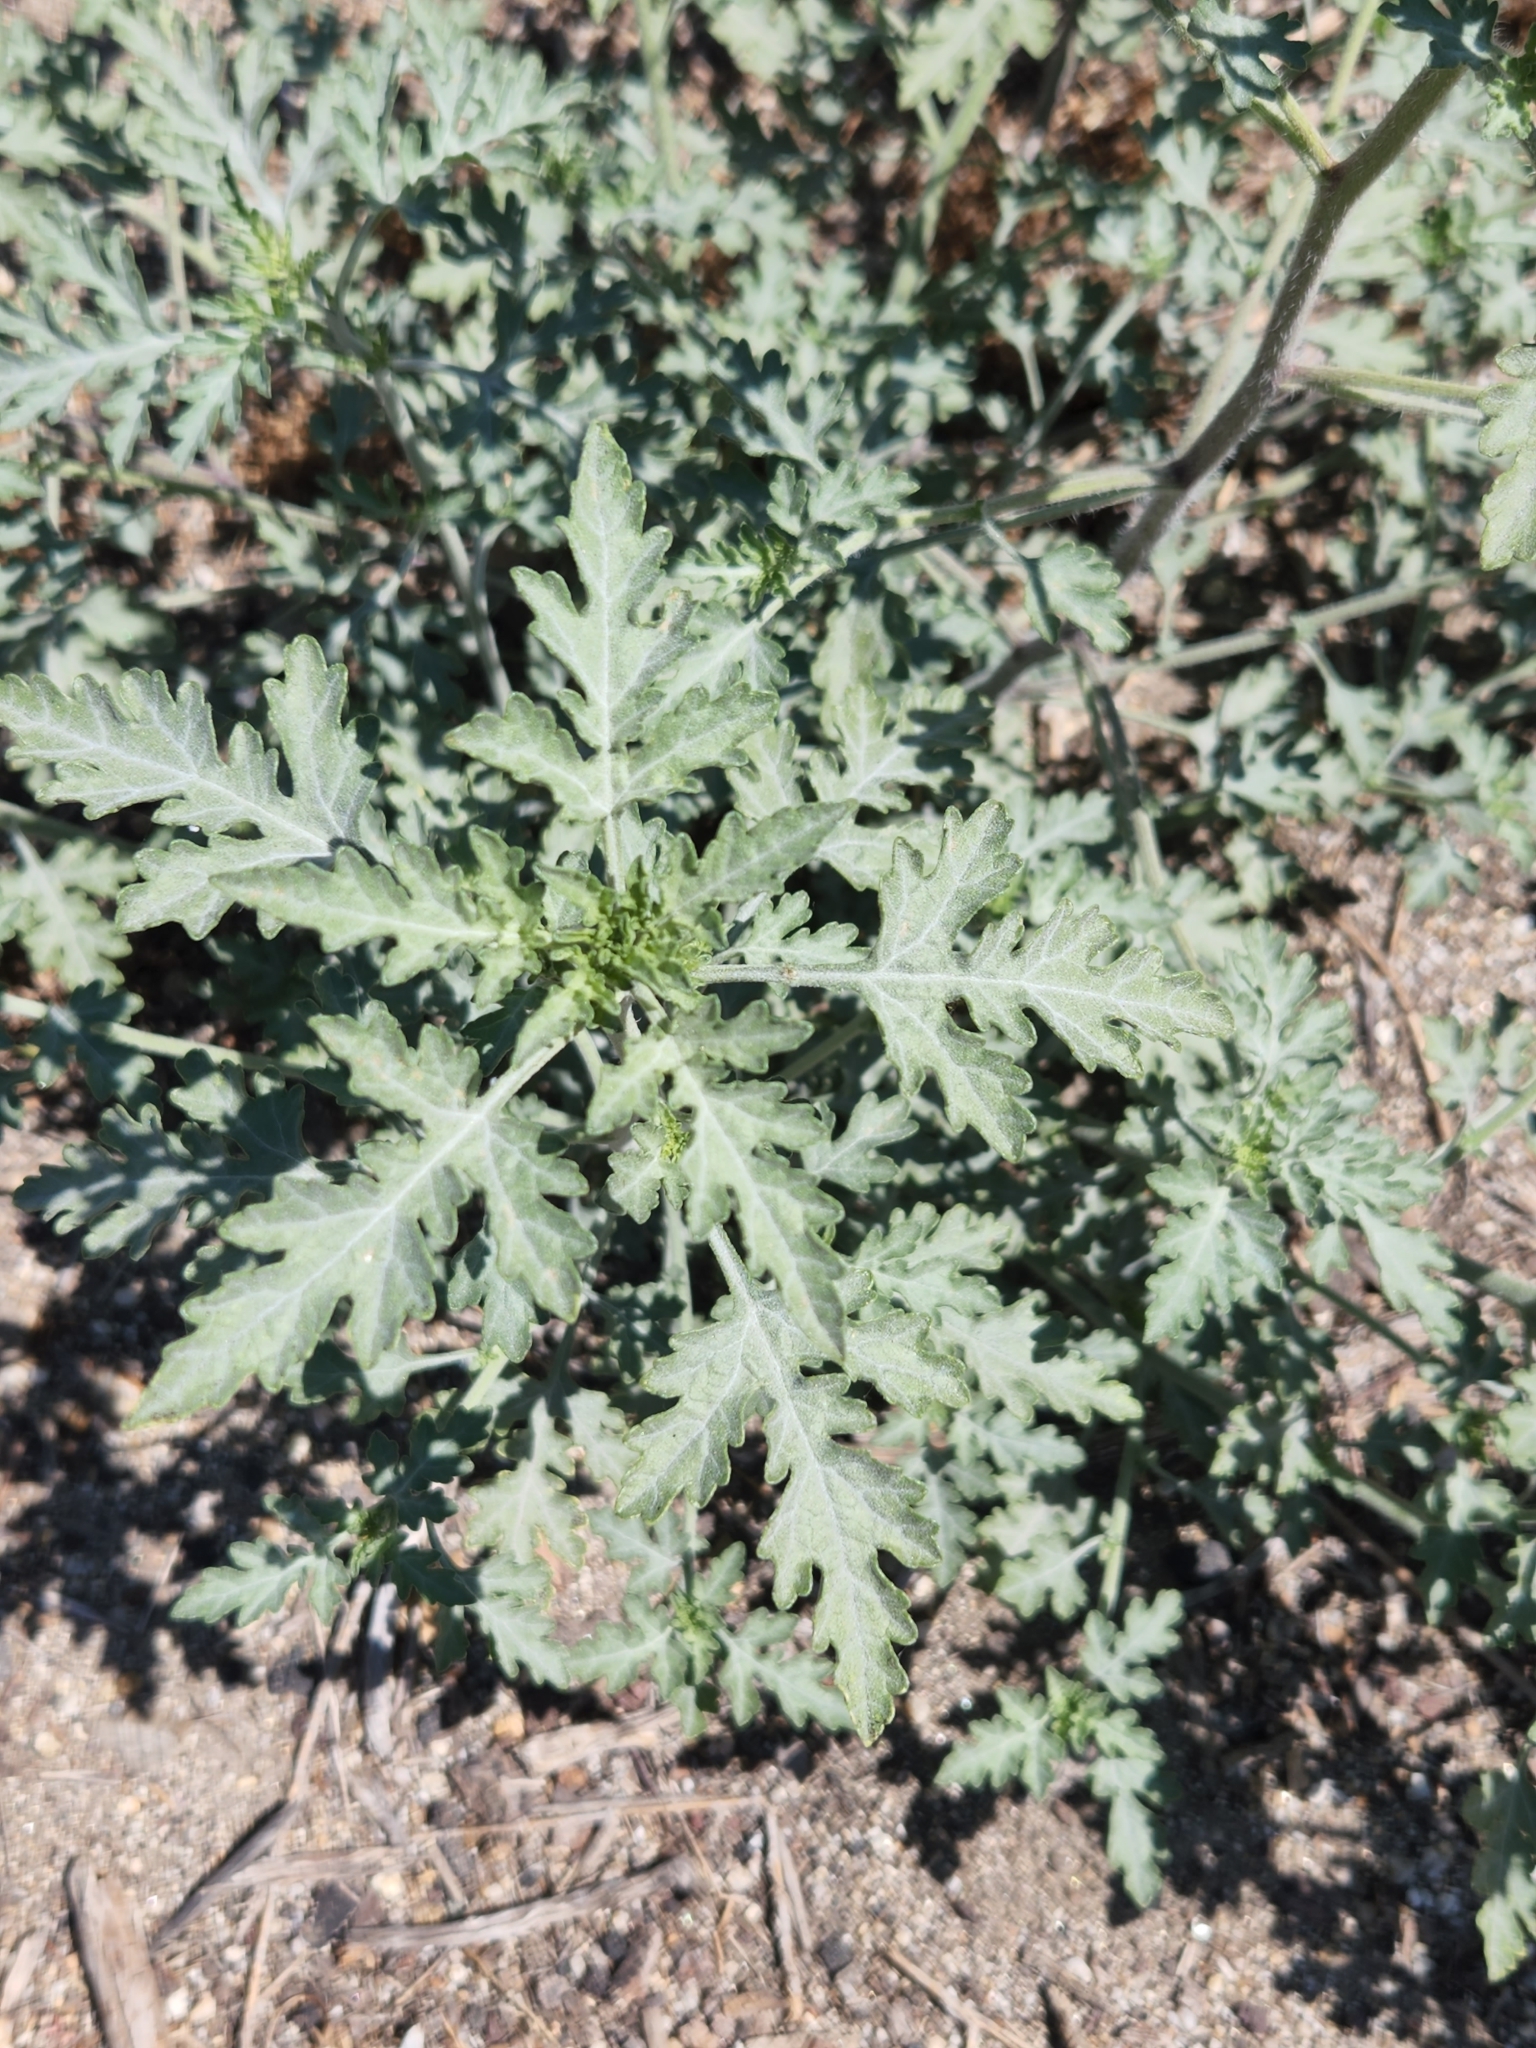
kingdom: Plantae
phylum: Tracheophyta
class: Magnoliopsida
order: Asterales
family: Asteraceae
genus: Ambrosia
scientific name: Ambrosia acanthicarpa
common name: Hooker's bur ragweed
